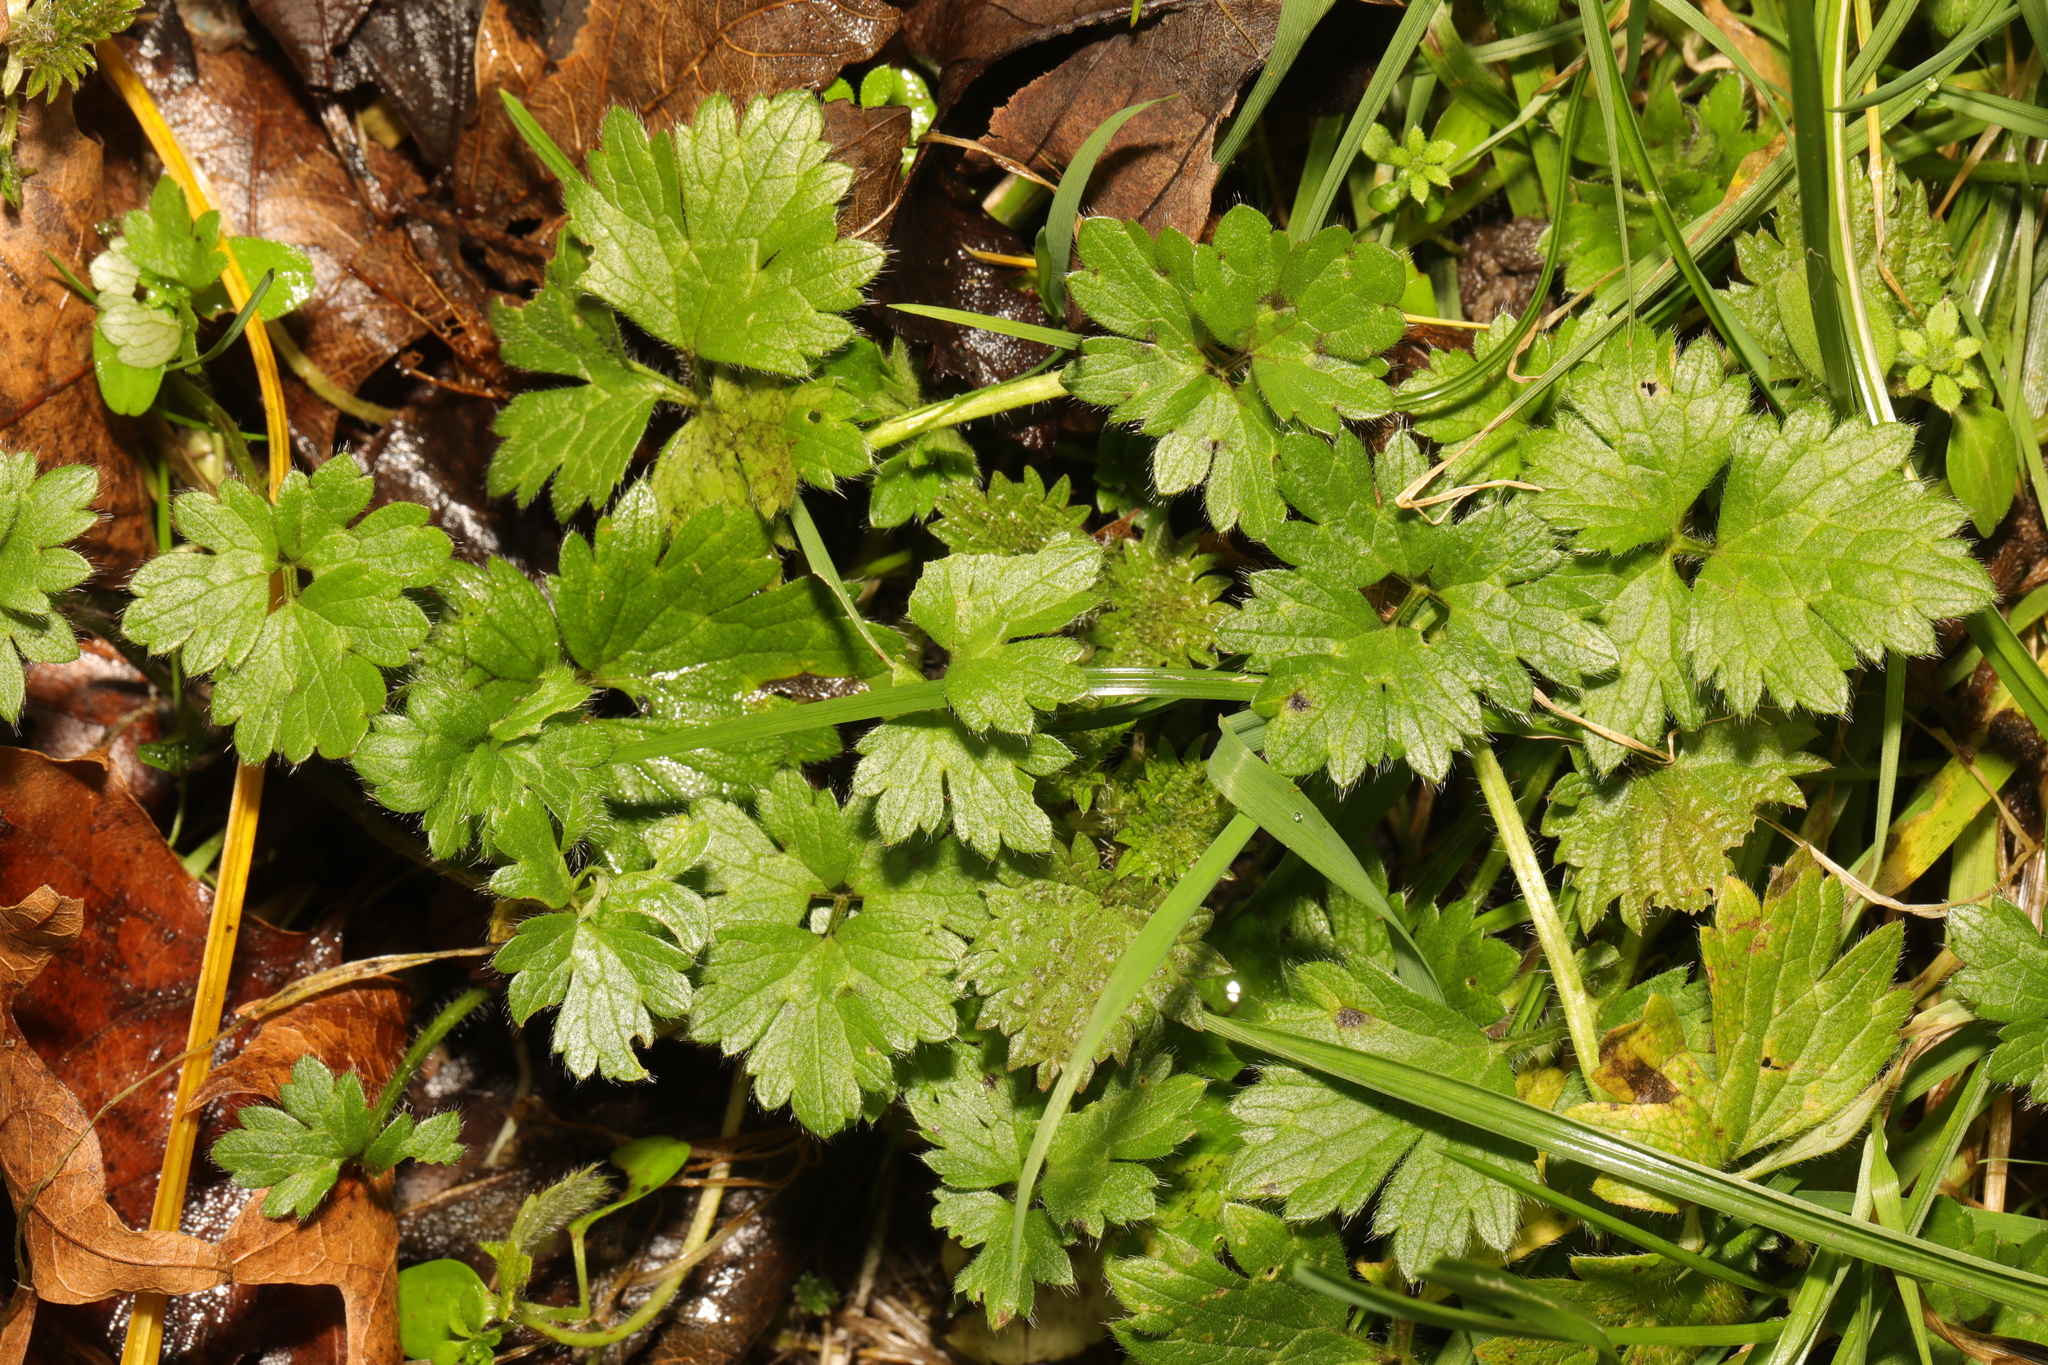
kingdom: Plantae
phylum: Tracheophyta
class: Magnoliopsida
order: Ranunculales
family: Ranunculaceae
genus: Ranunculus
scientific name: Ranunculus repens
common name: Creeping buttercup
